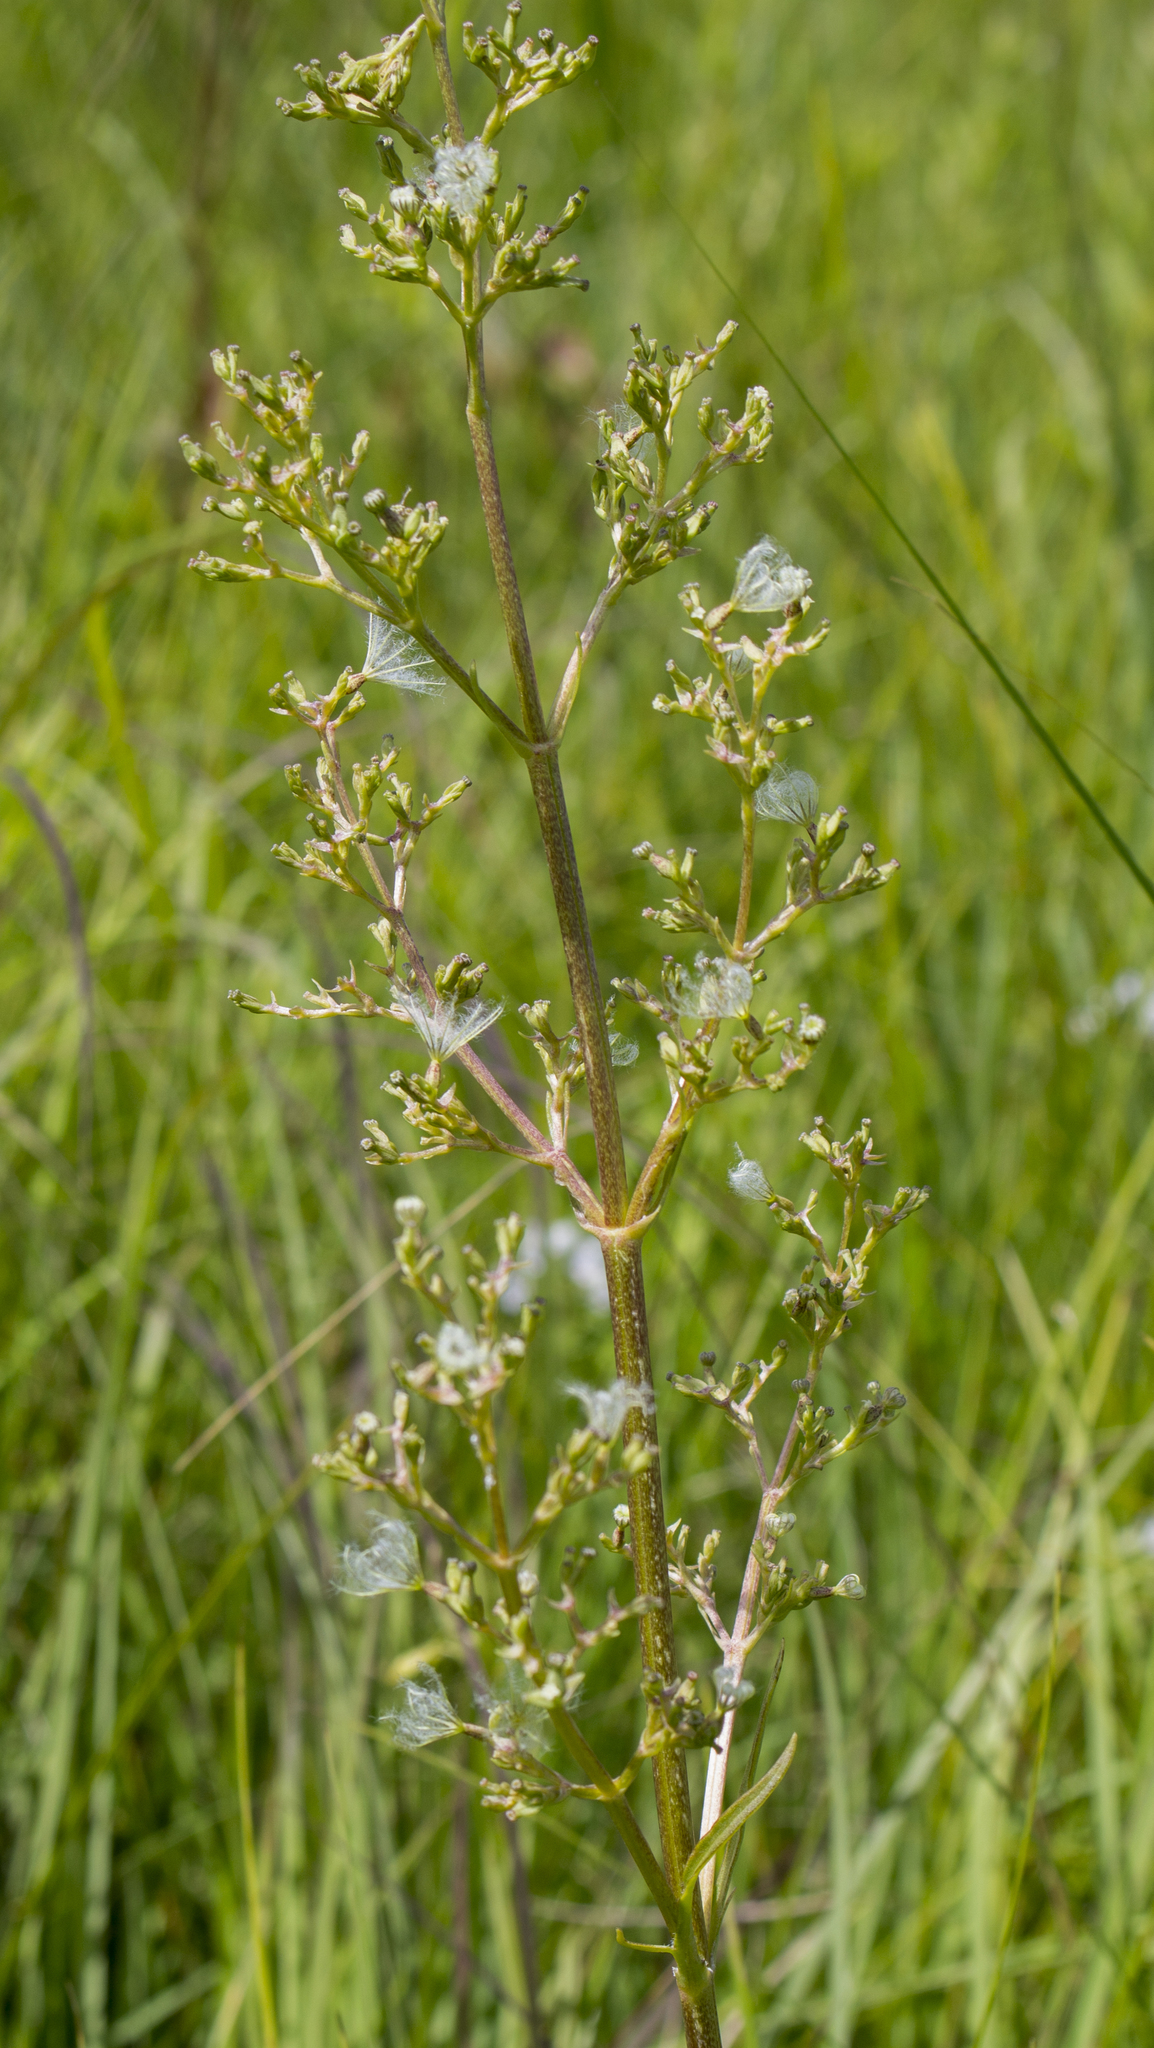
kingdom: Plantae
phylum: Tracheophyta
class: Magnoliopsida
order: Dipsacales
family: Caprifoliaceae
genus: Valeriana
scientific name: Valeriana edulis
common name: Taproot valerian
